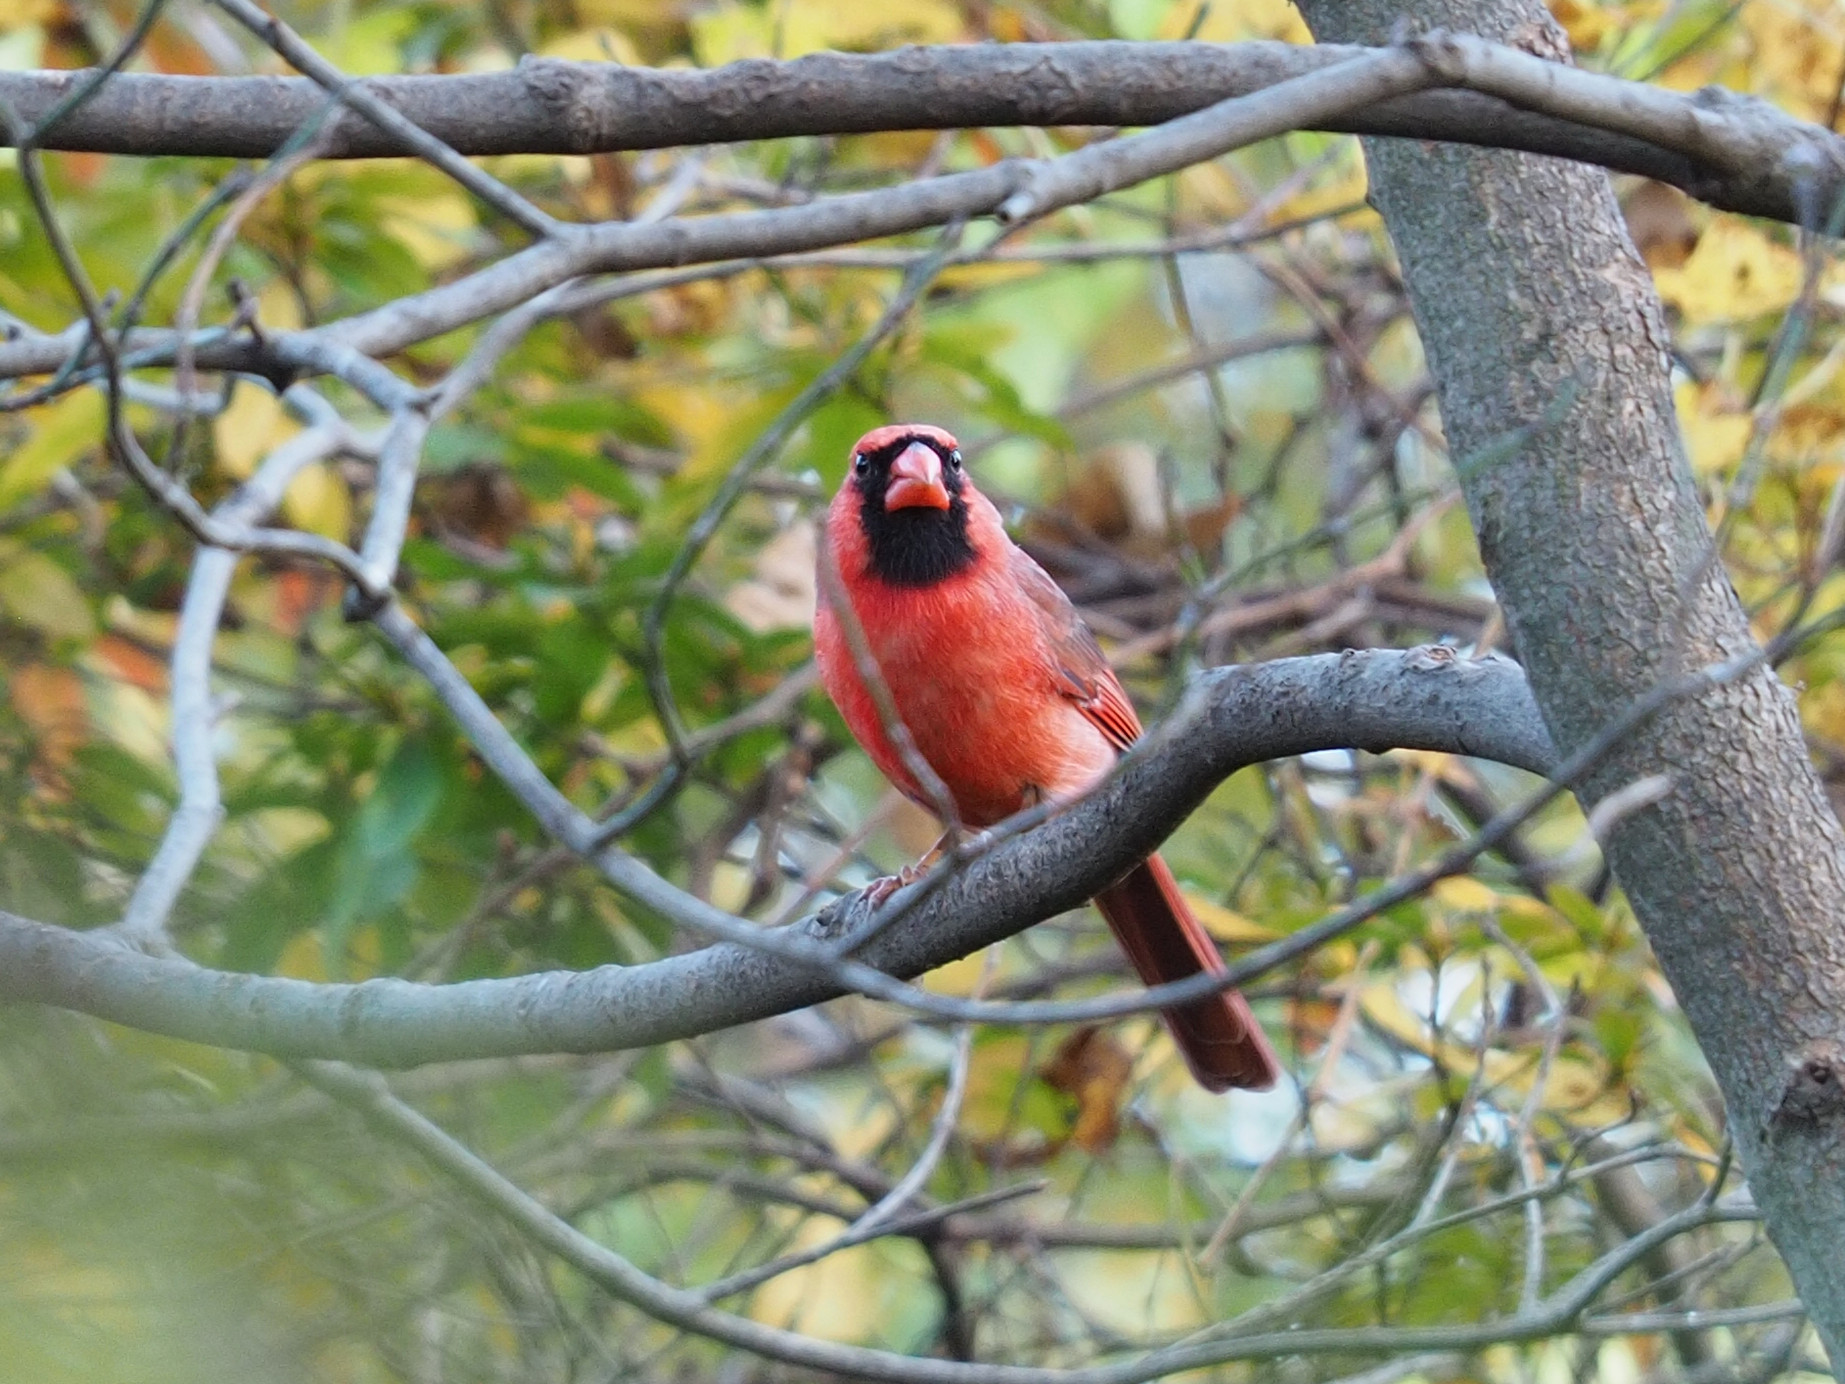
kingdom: Animalia
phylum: Chordata
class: Aves
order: Passeriformes
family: Cardinalidae
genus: Cardinalis
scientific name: Cardinalis cardinalis
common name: Northern cardinal
